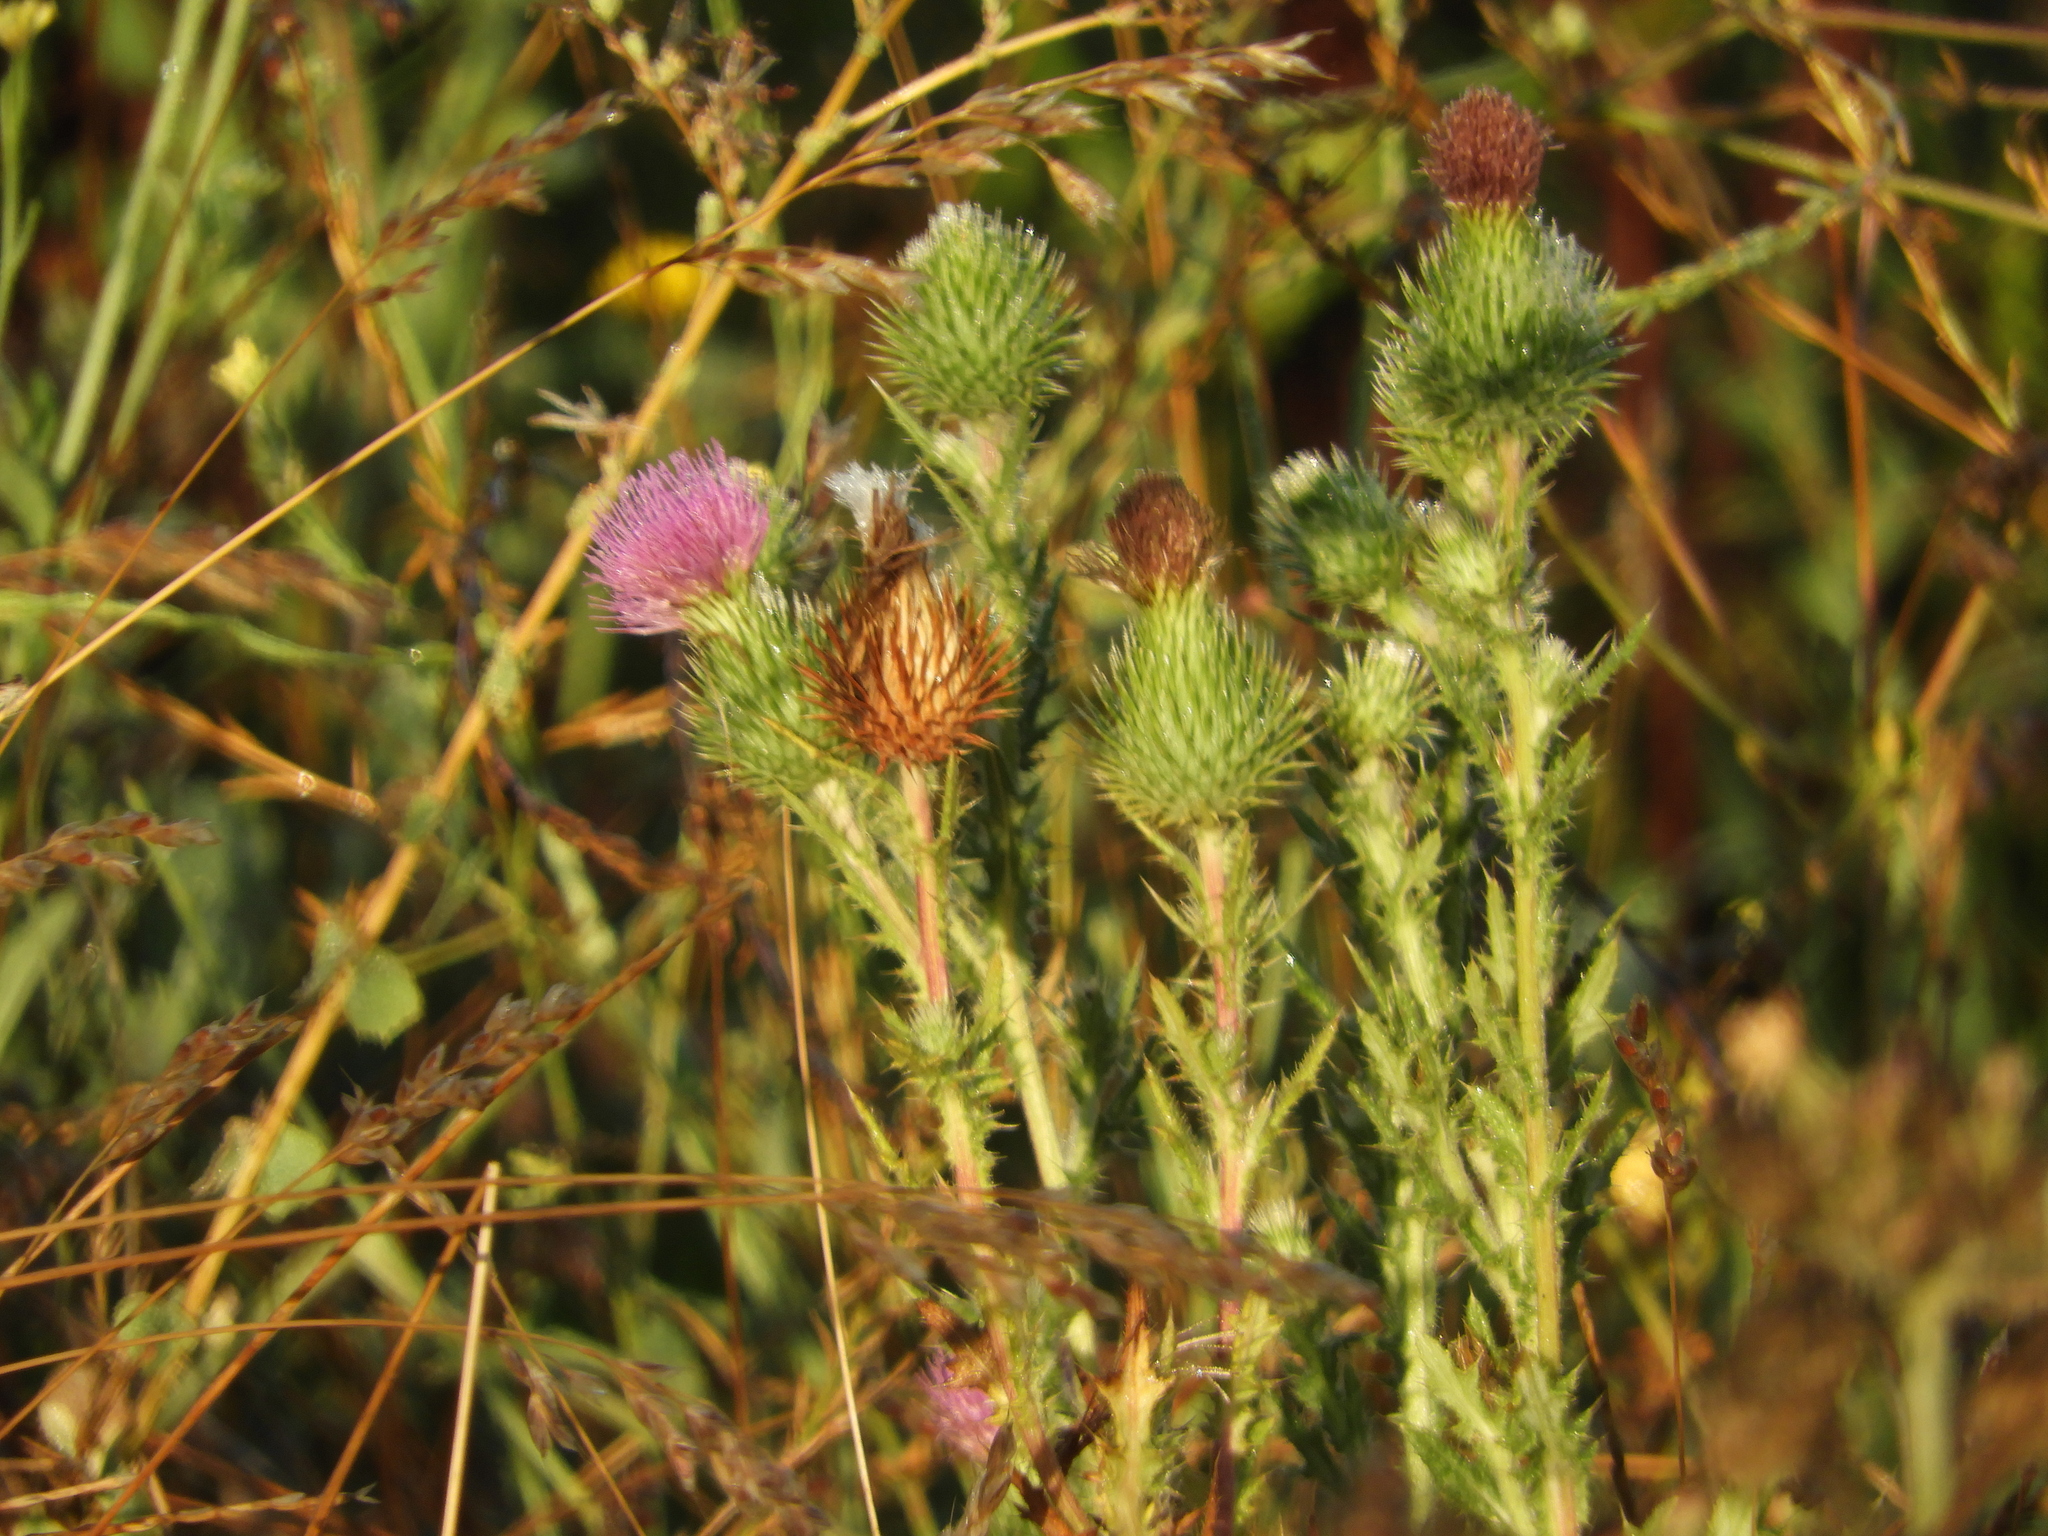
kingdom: Plantae
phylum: Tracheophyta
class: Magnoliopsida
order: Asterales
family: Asteraceae
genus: Cirsium
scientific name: Cirsium vulgare
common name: Bull thistle
